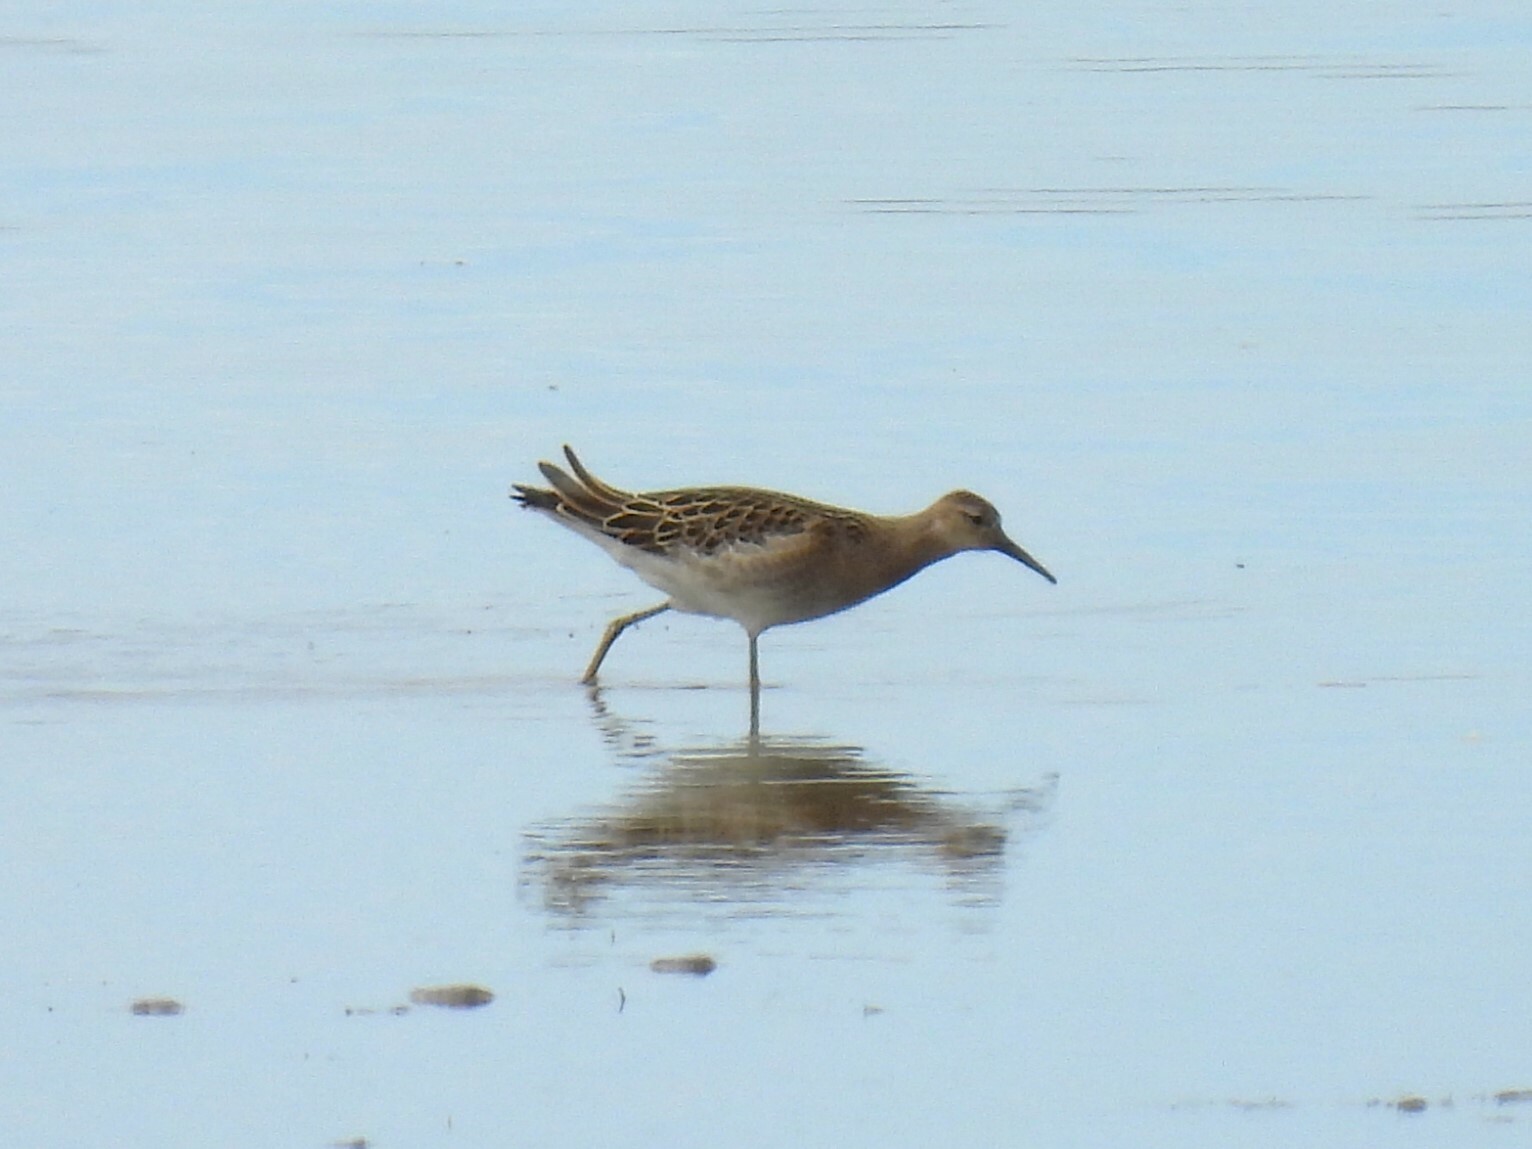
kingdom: Animalia
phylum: Chordata
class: Aves
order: Charadriiformes
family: Scolopacidae
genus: Calidris
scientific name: Calidris pugnax
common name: Ruff
